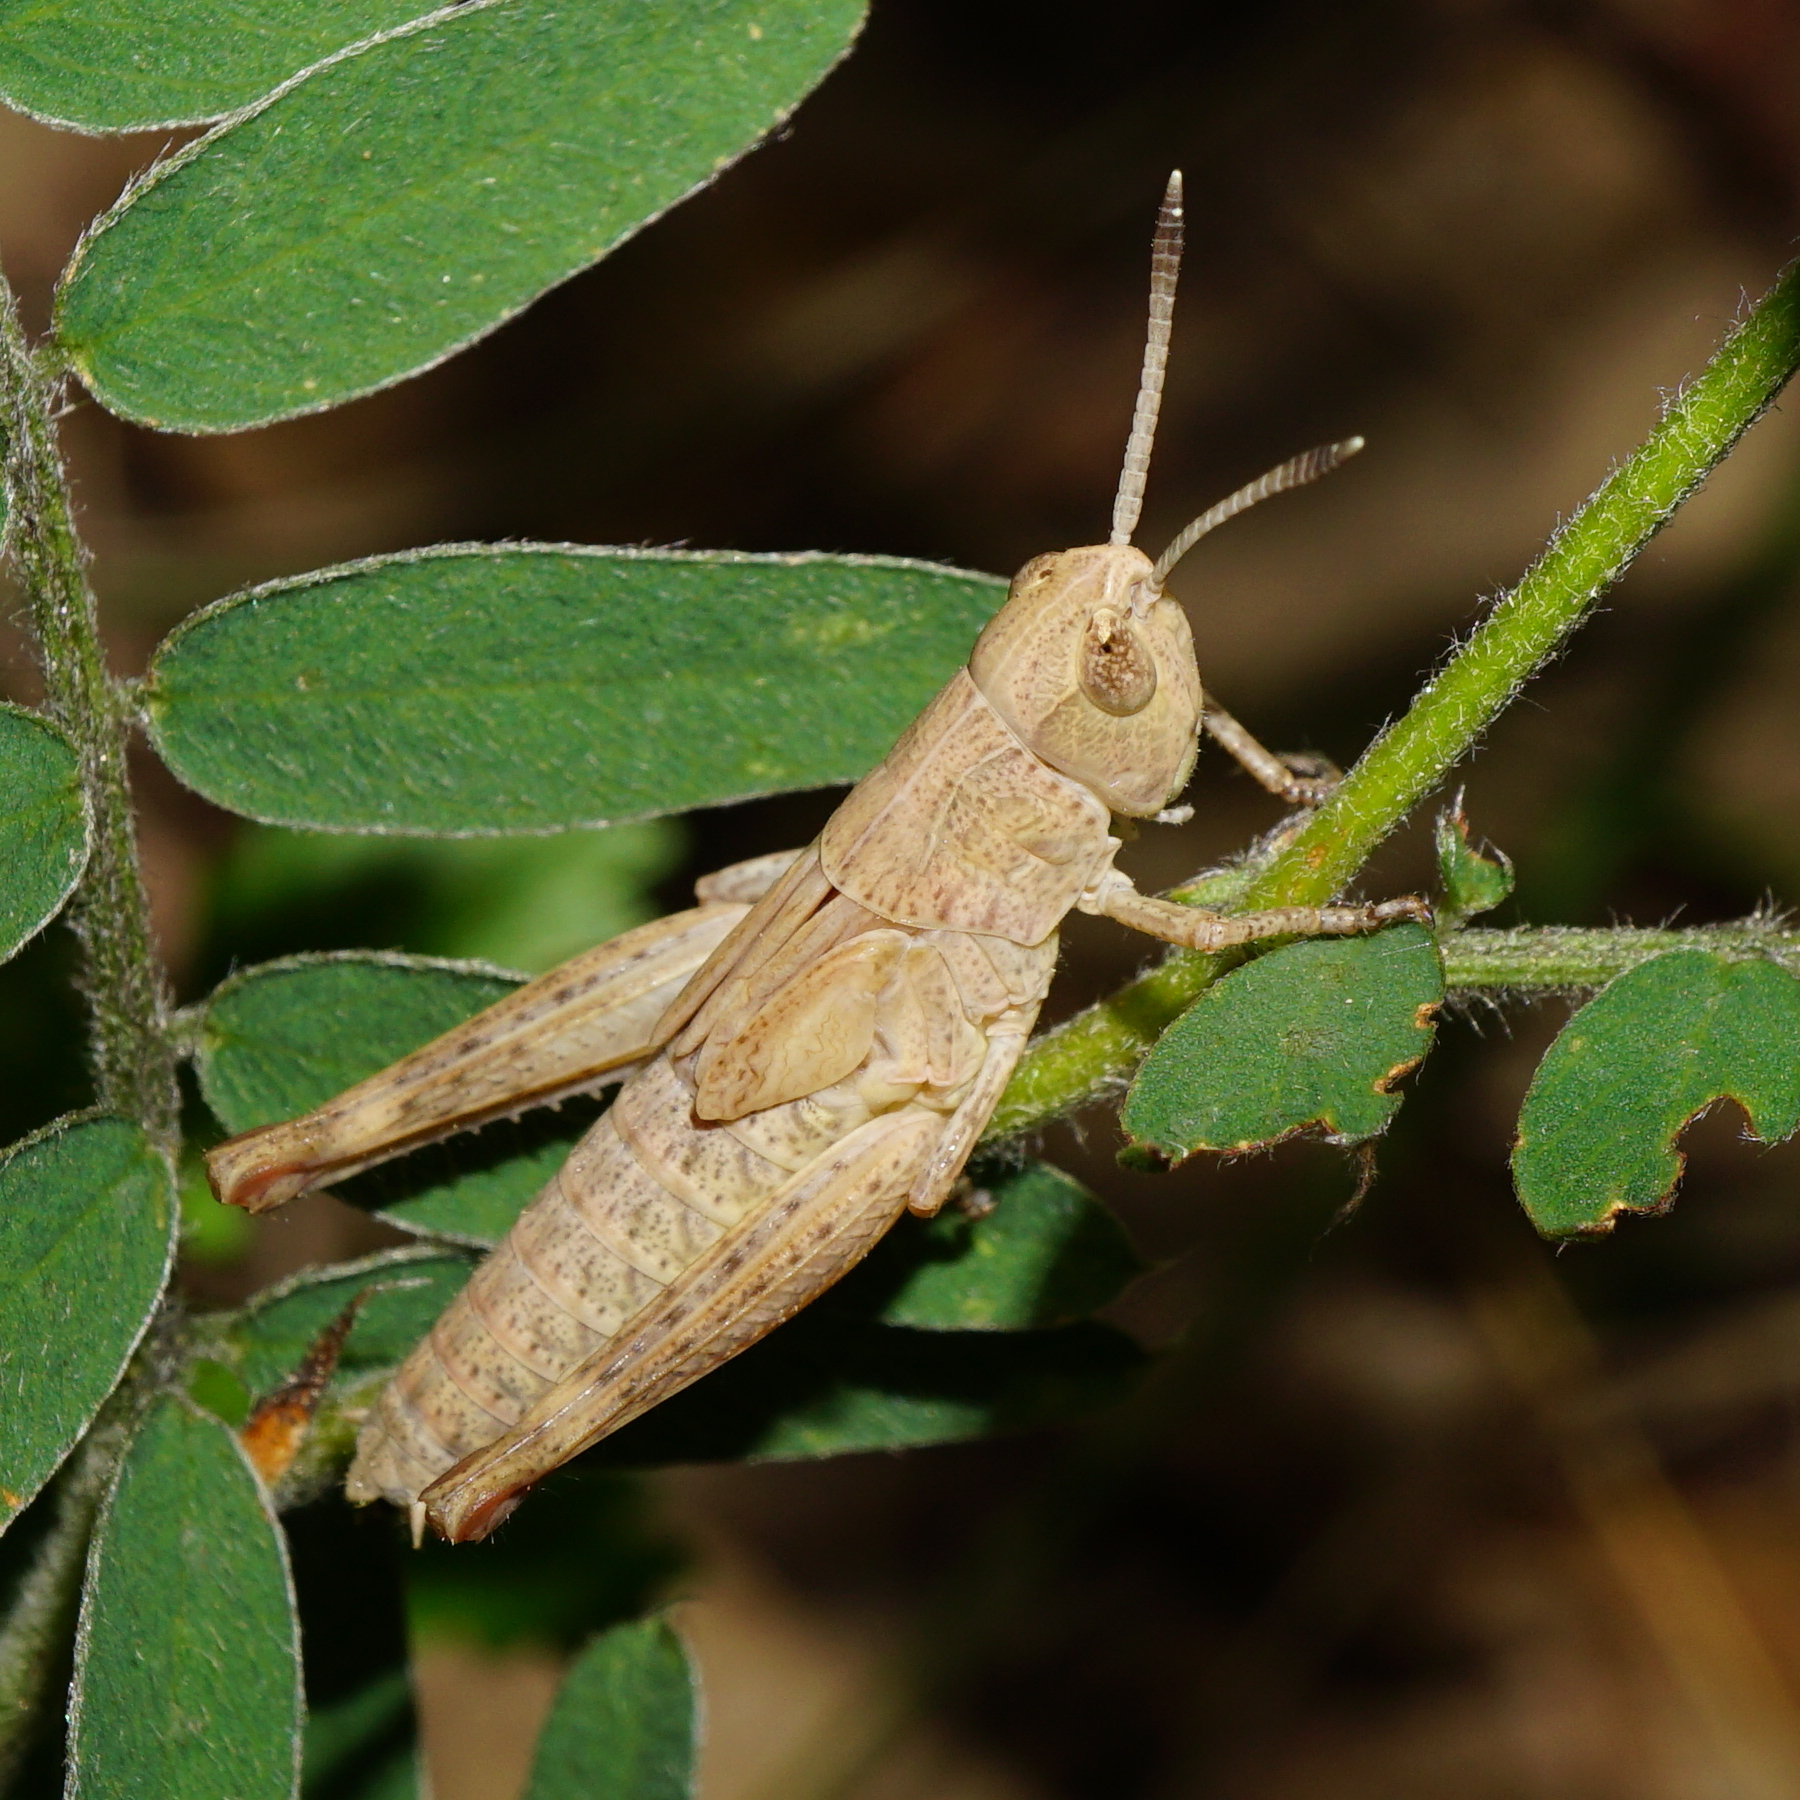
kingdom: Animalia
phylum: Arthropoda
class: Insecta
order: Orthoptera
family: Acrididae
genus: Gomphocerippus
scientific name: Gomphocerippus rufus
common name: Rufous grasshopper
